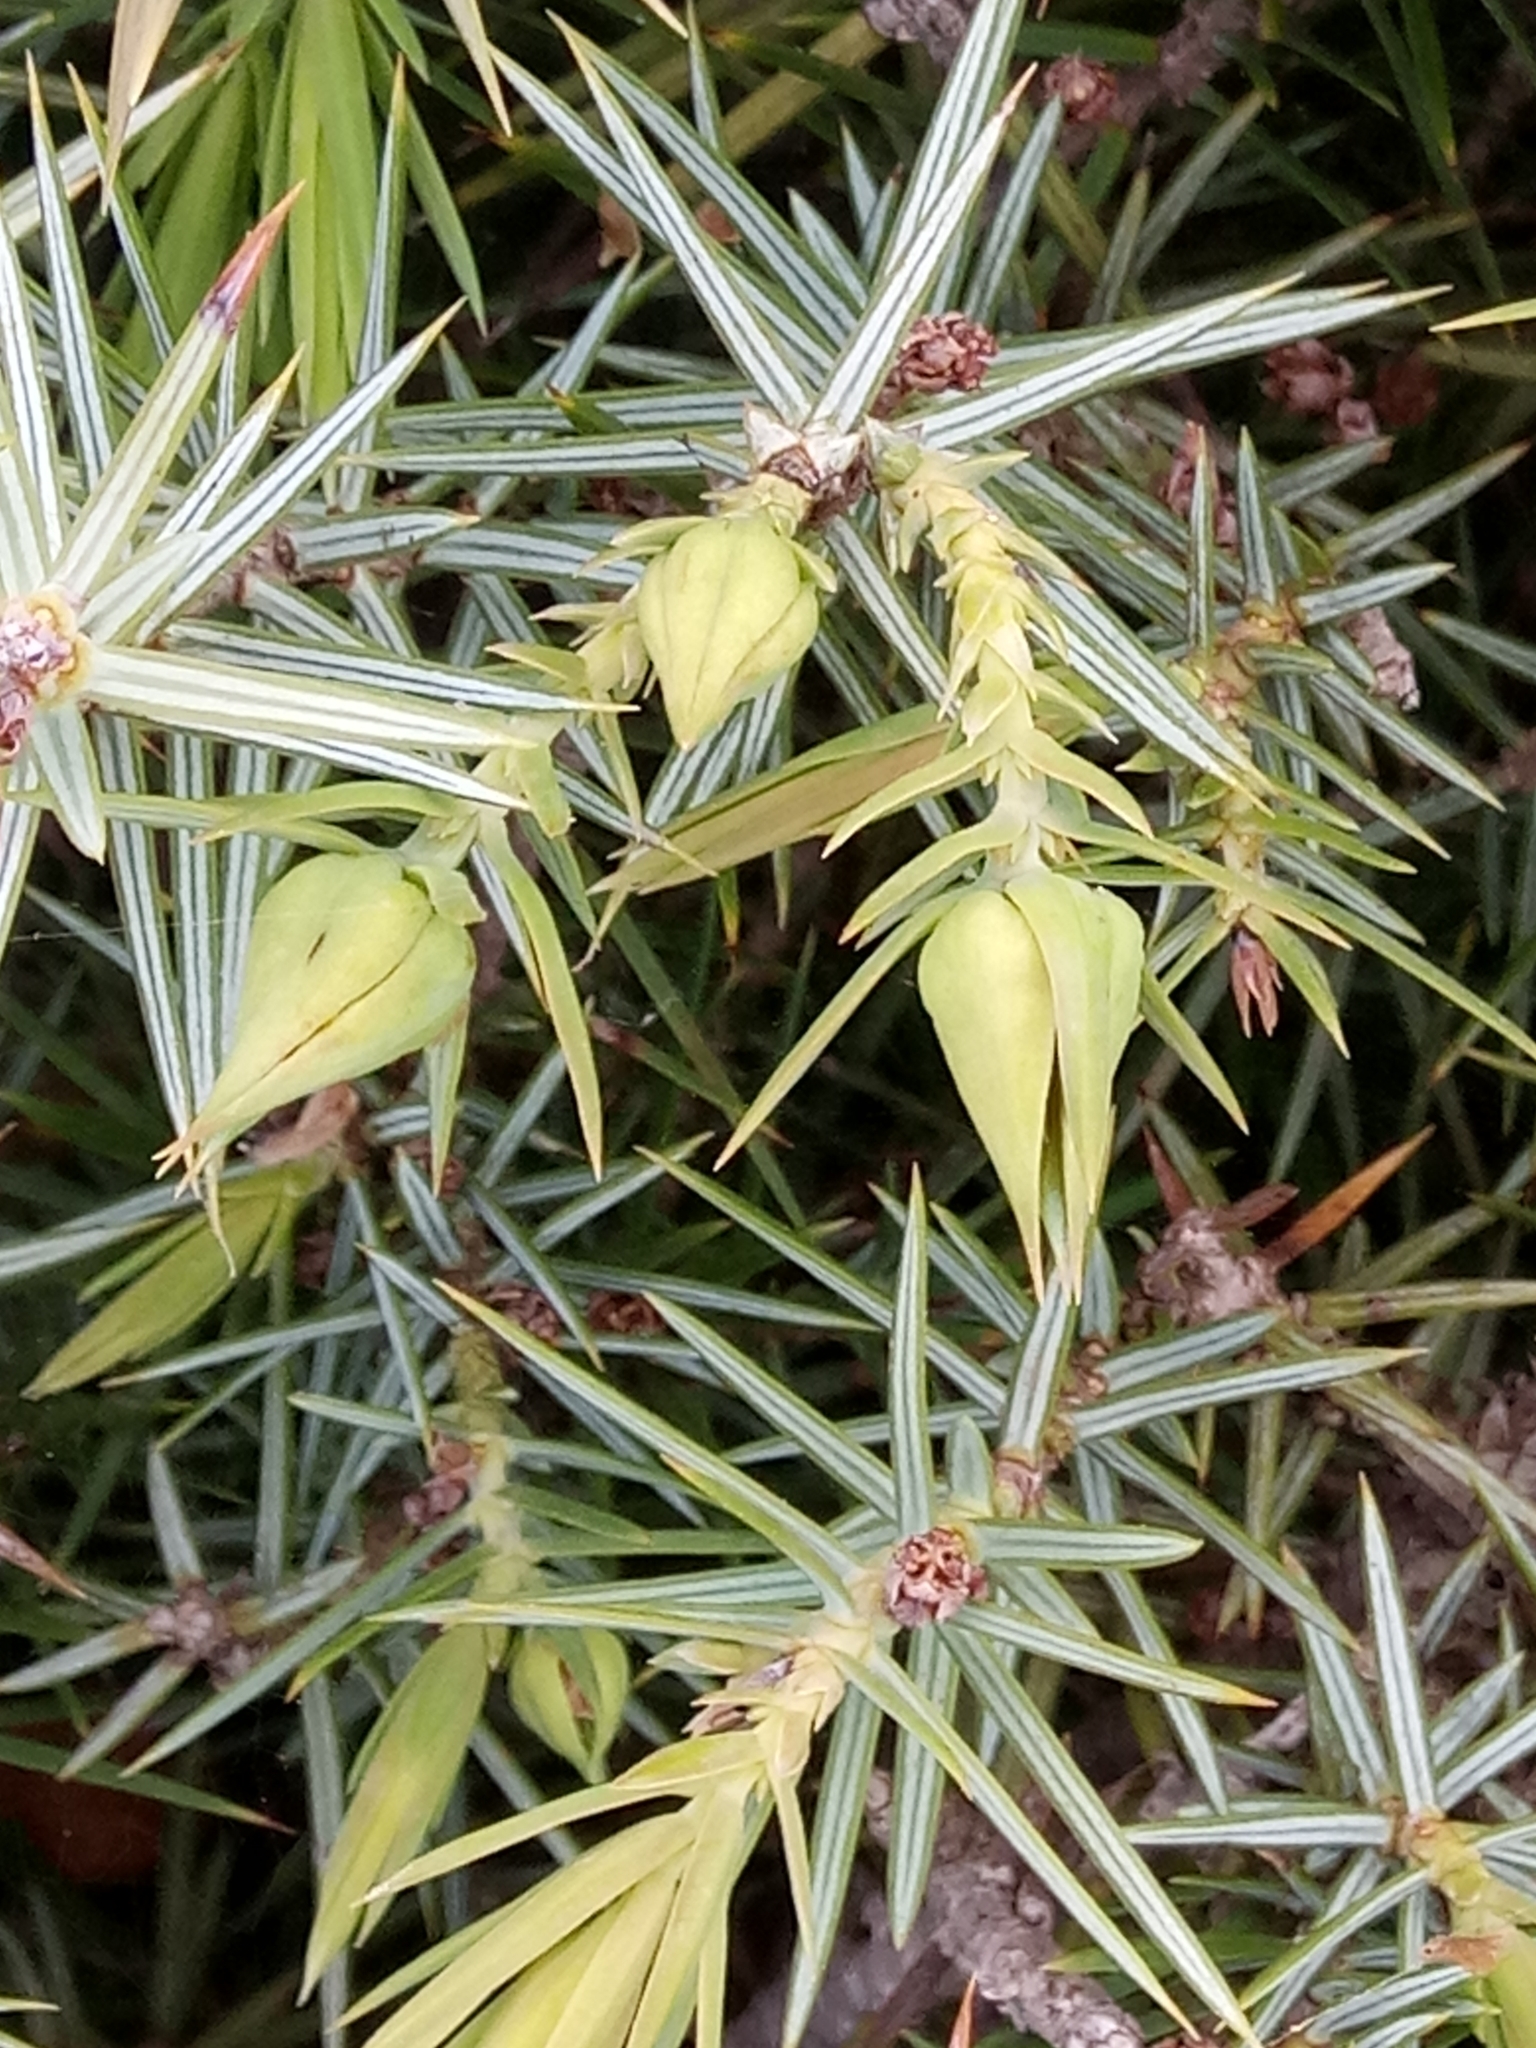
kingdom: Plantae
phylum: Tracheophyta
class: Pinopsida
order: Pinales
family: Cupressaceae
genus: Juniperus
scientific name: Juniperus oxycedrus
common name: Prickly juniper
